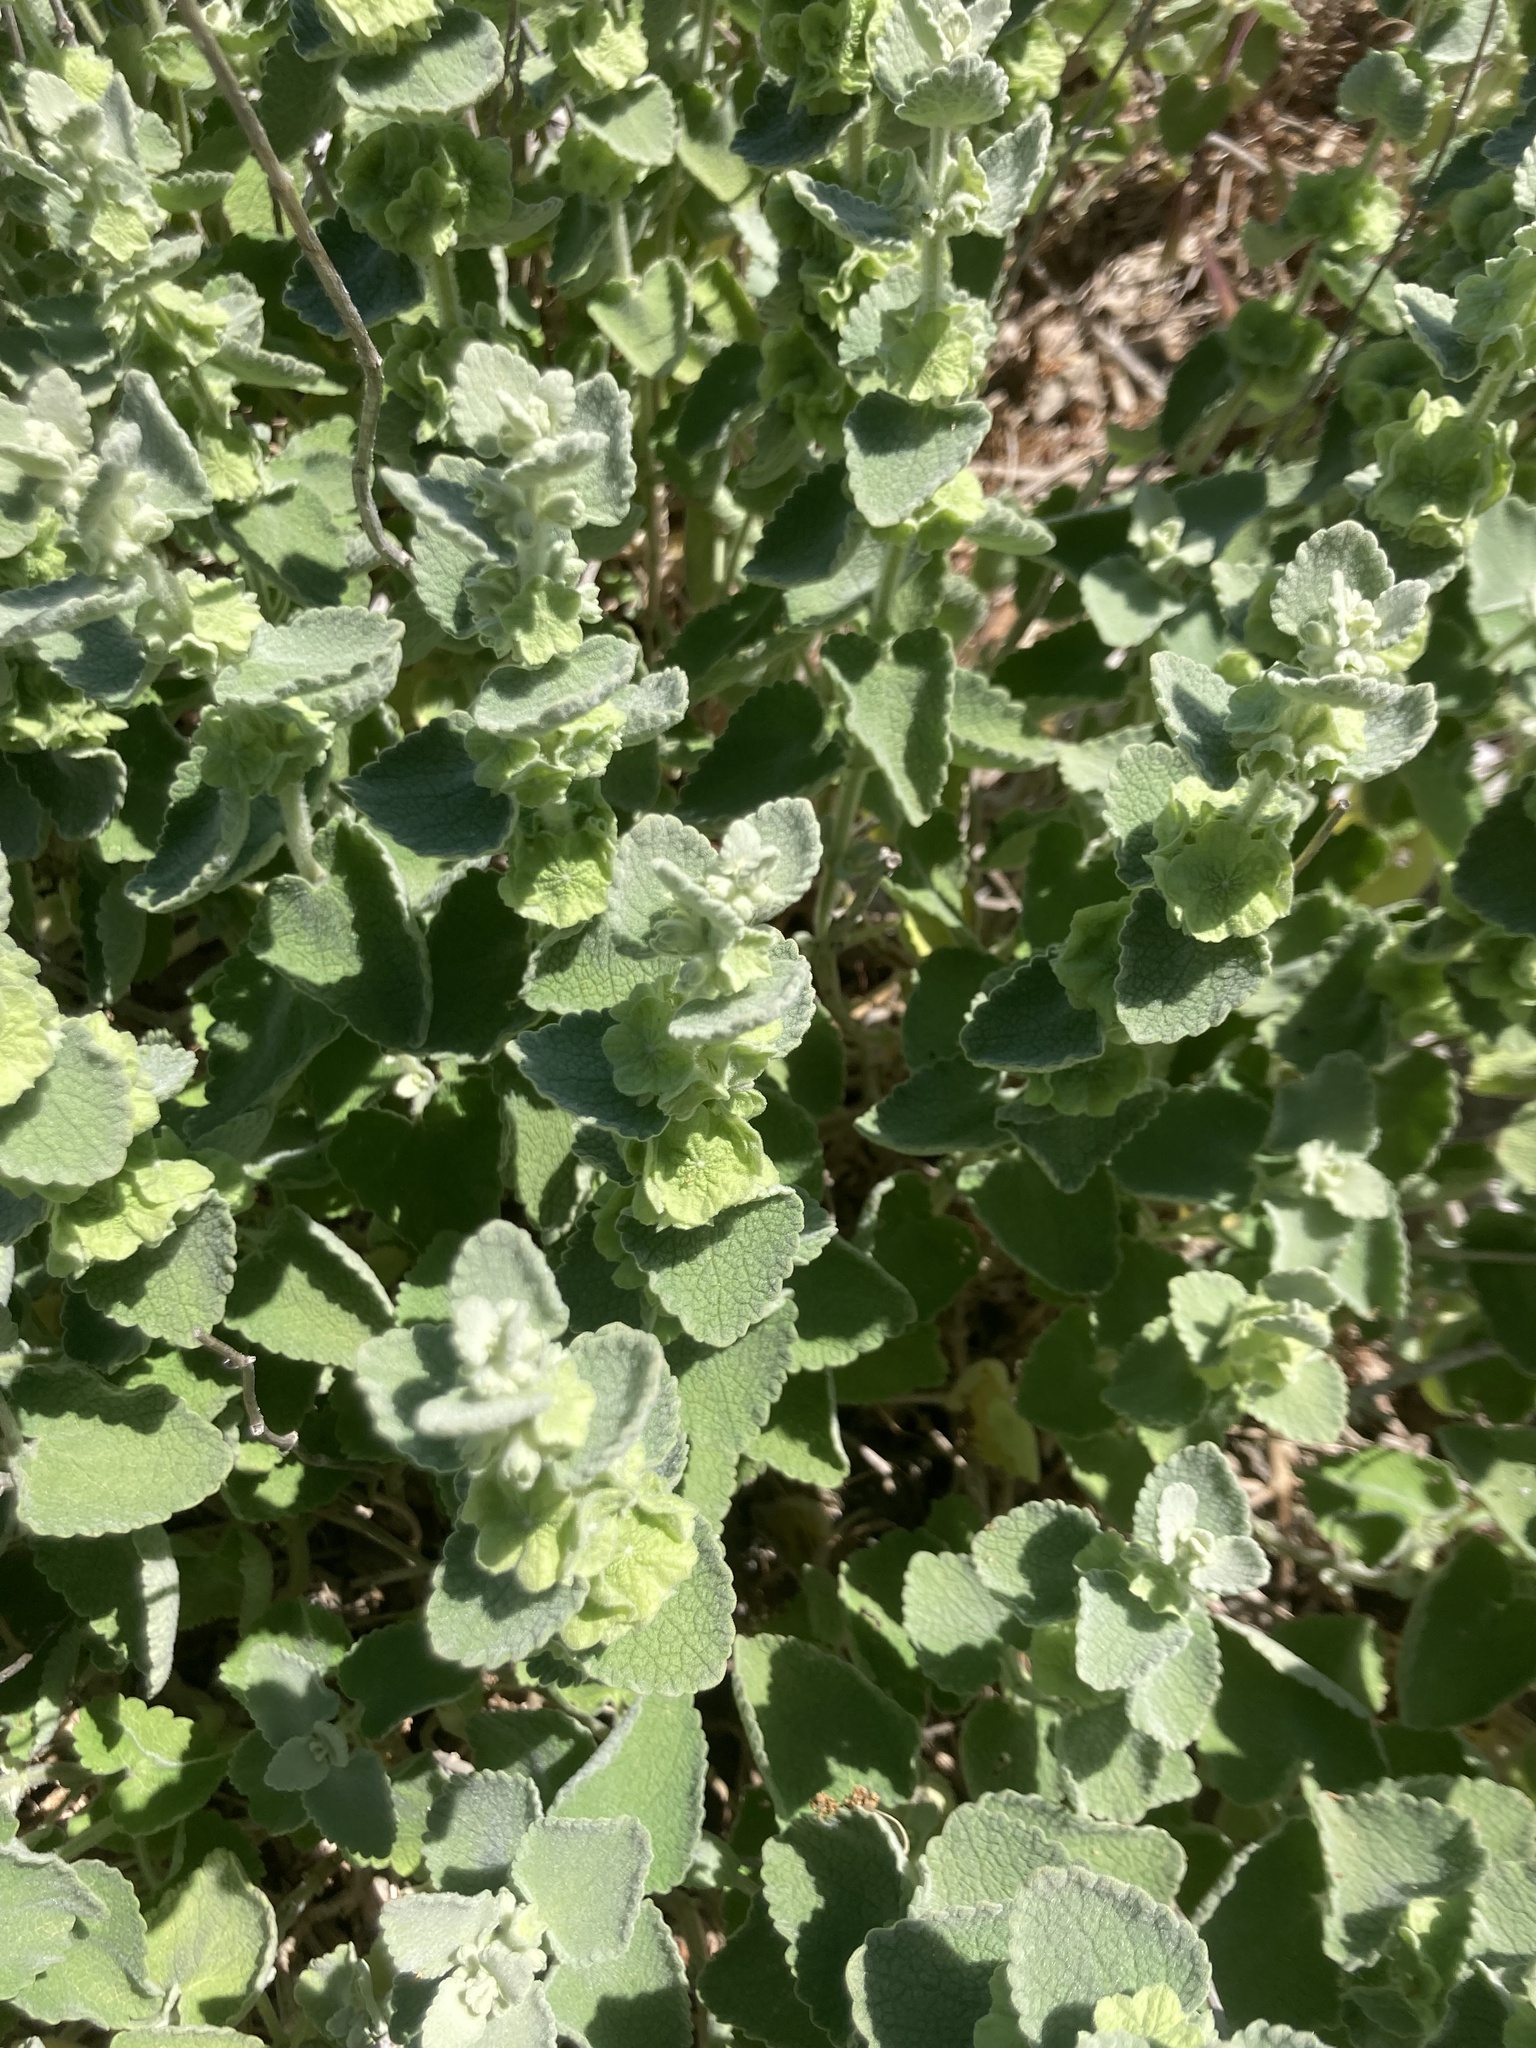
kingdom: Plantae
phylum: Tracheophyta
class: Magnoliopsida
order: Lamiales
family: Lamiaceae
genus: Pseudodictamnus
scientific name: Pseudodictamnus acetabulosus
